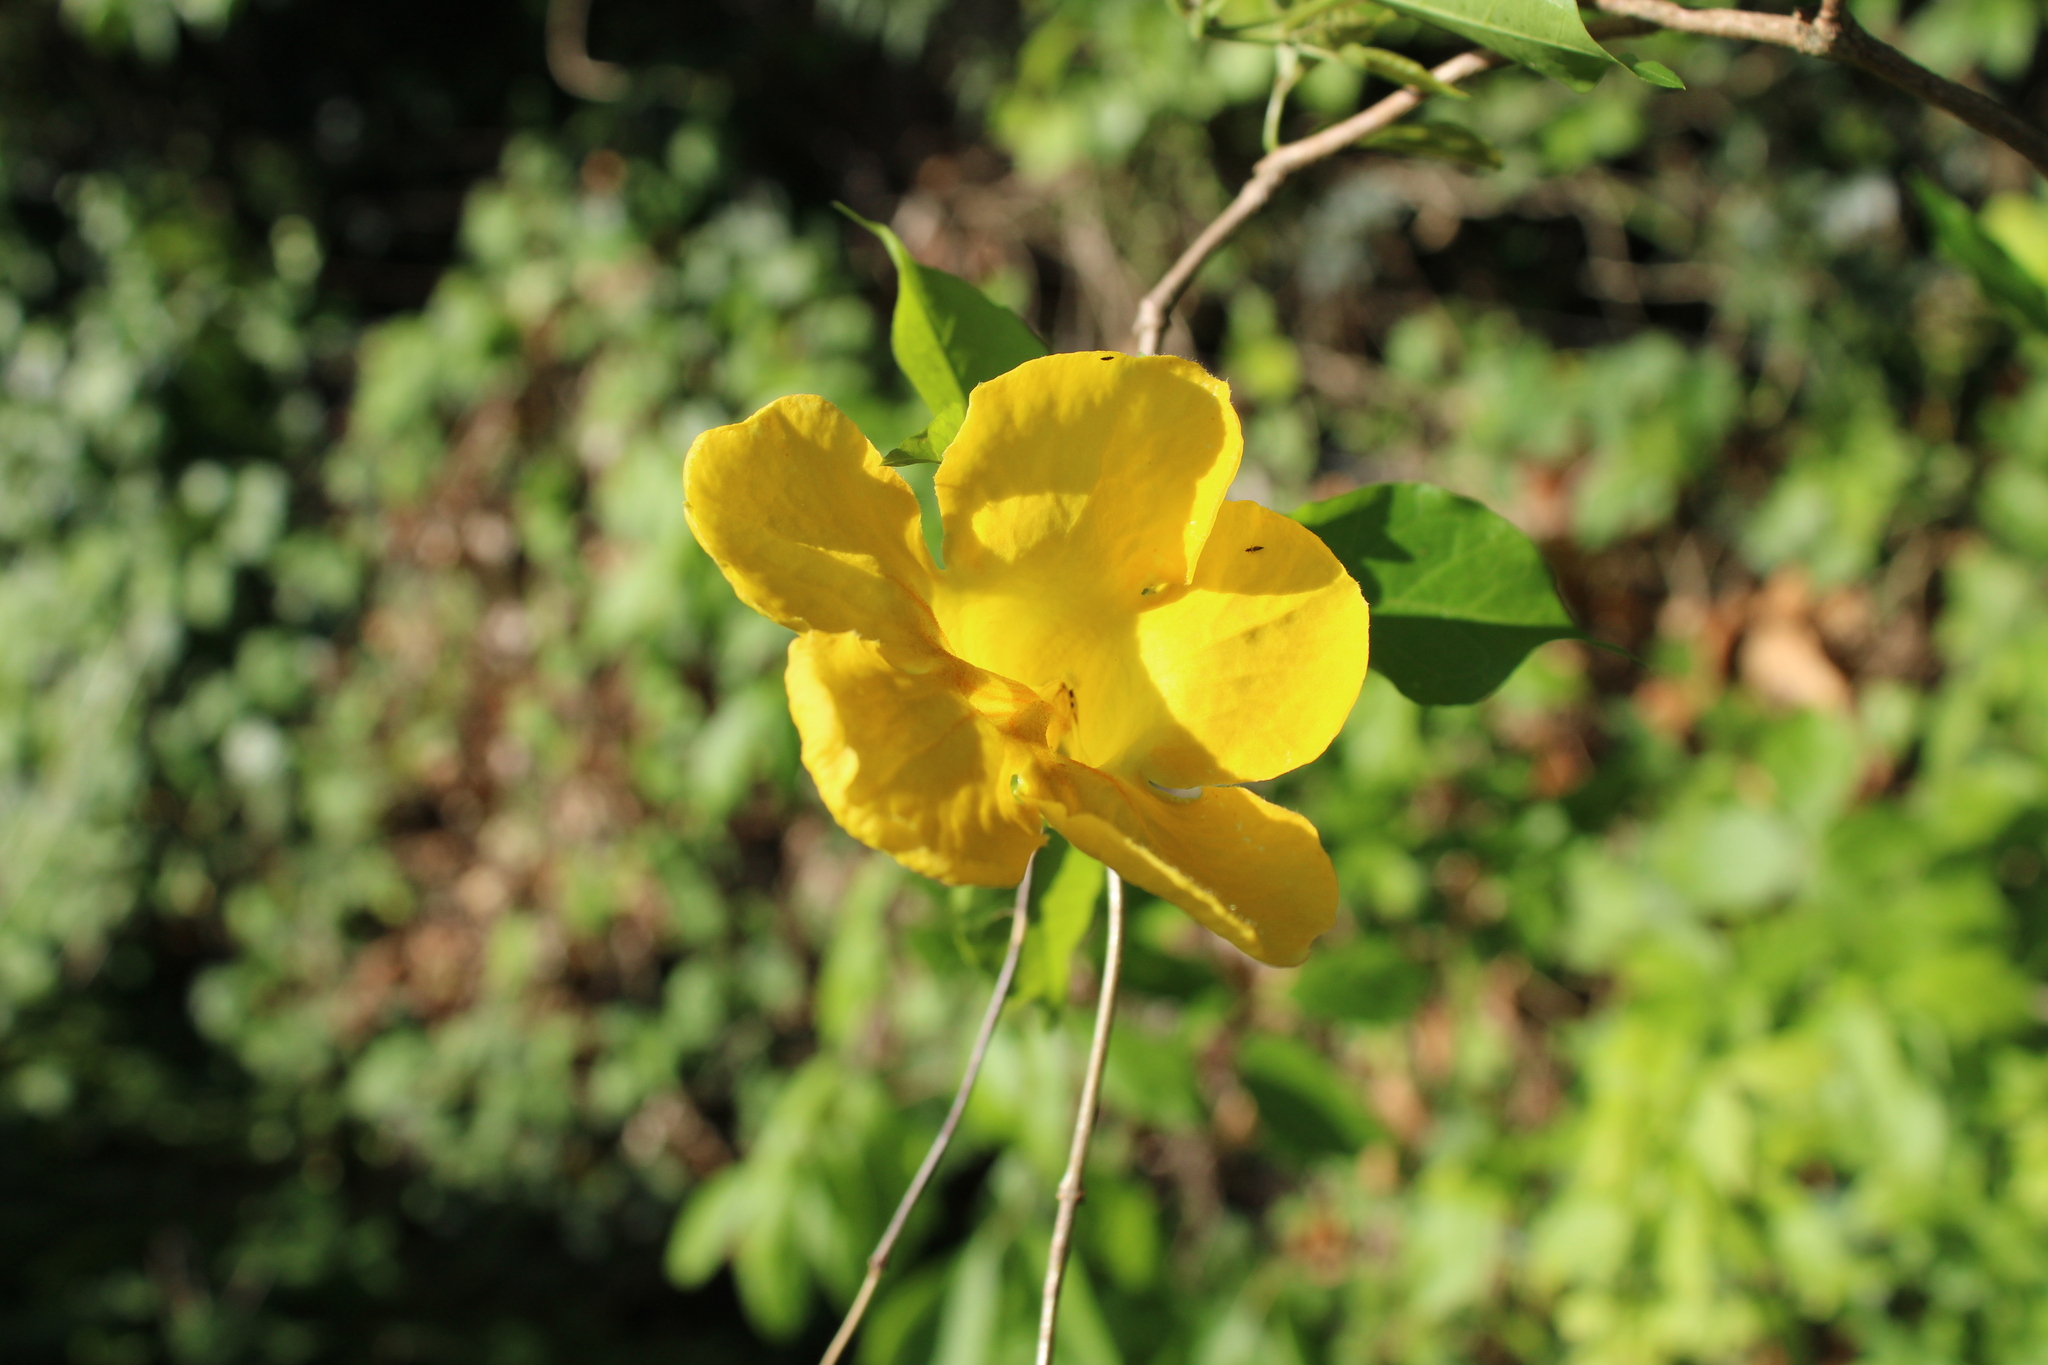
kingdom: Plantae
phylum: Tracheophyta
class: Magnoliopsida
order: Lamiales
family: Bignoniaceae
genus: Dolichandra
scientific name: Dolichandra unguis-cati
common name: Catclaw vine
